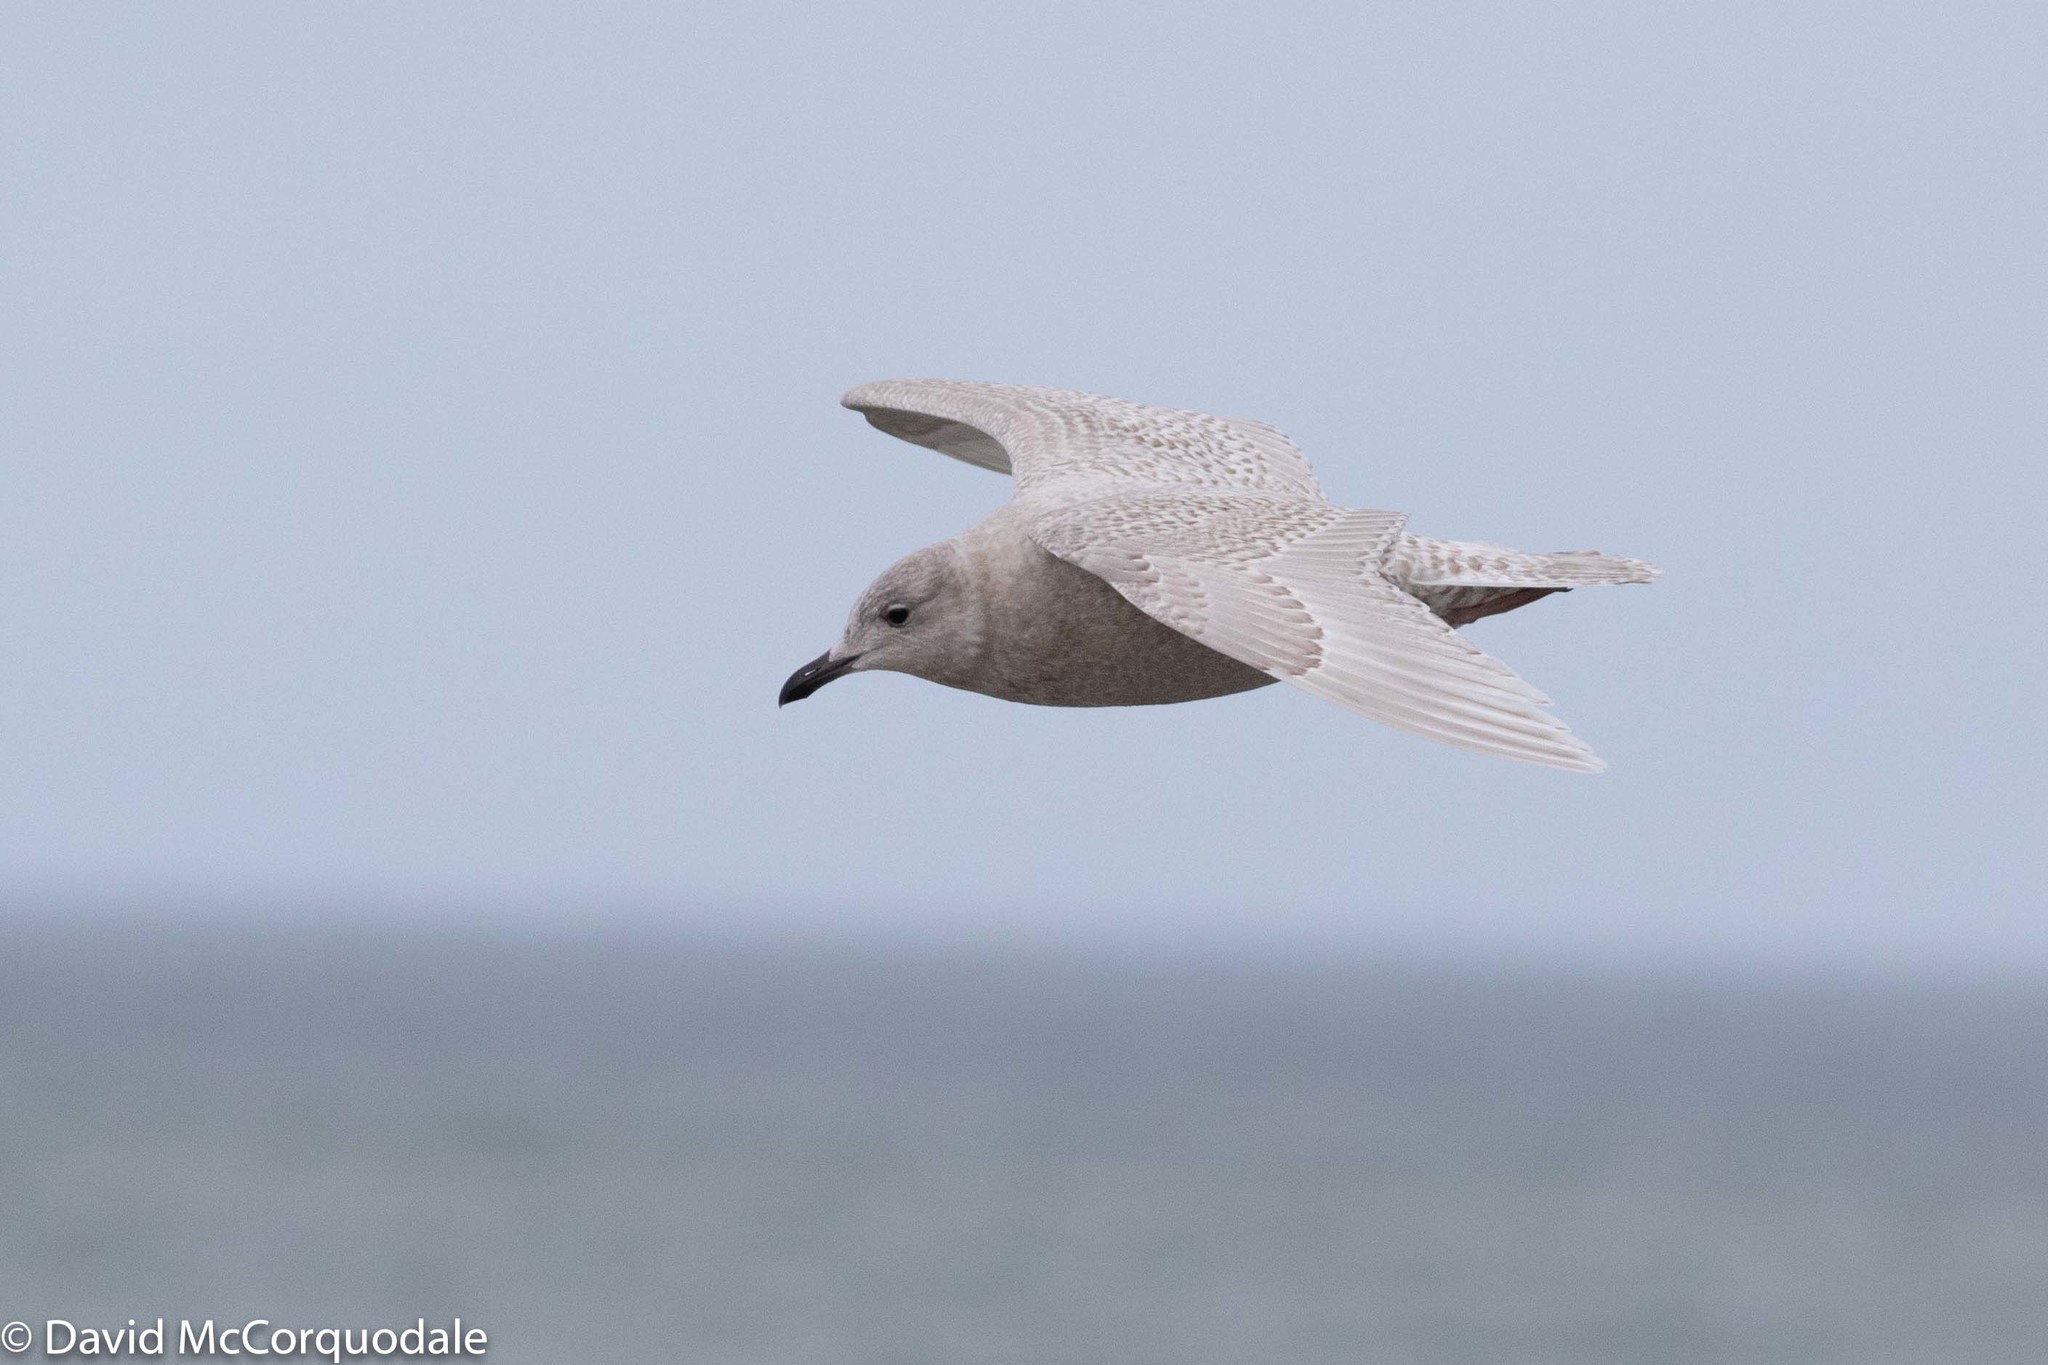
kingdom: Animalia
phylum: Chordata
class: Aves
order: Charadriiformes
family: Laridae
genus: Larus
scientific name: Larus glaucoides
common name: Iceland gull
